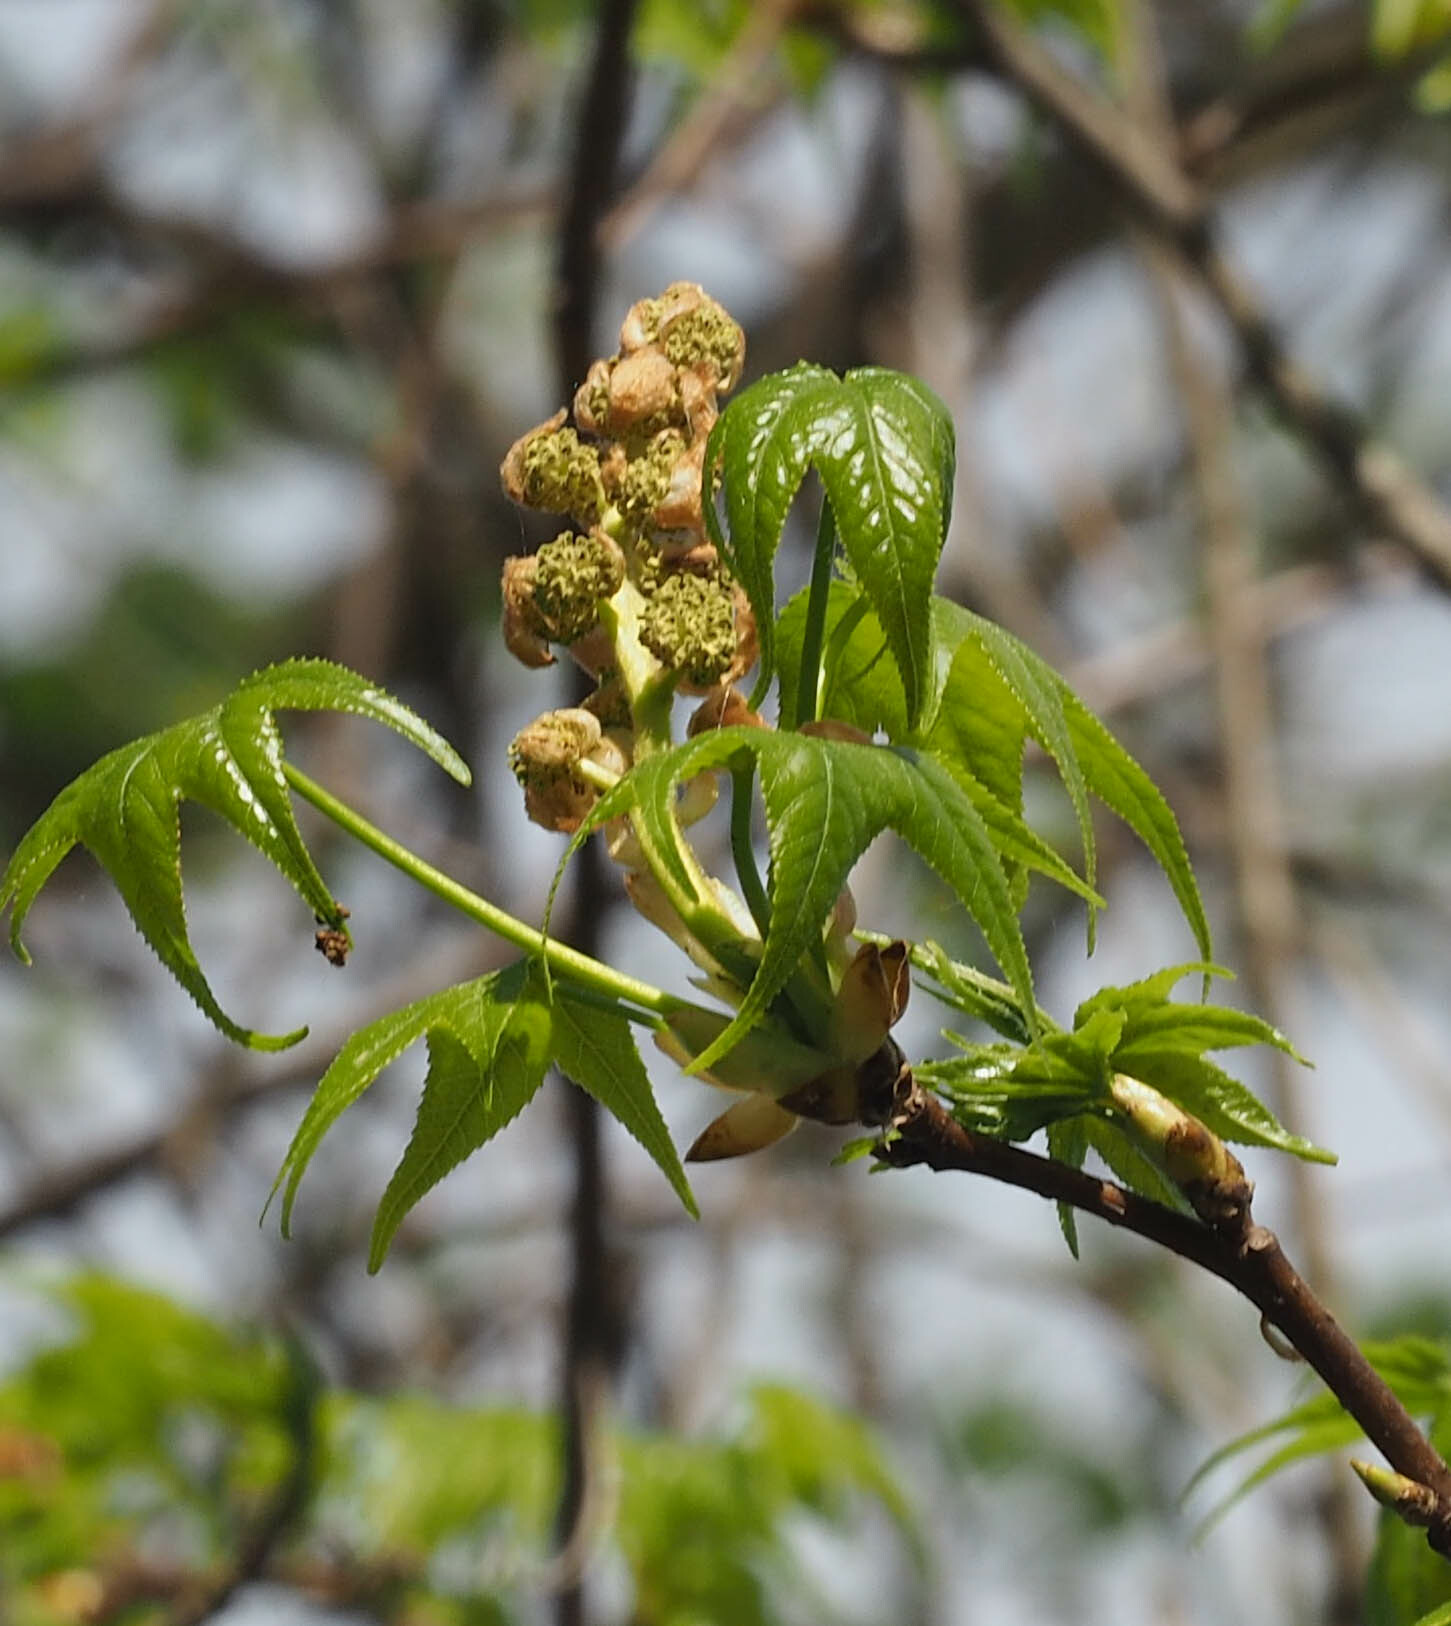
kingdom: Plantae
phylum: Tracheophyta
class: Magnoliopsida
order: Saxifragales
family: Altingiaceae
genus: Liquidambar
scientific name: Liquidambar styraciflua
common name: Sweet gum
